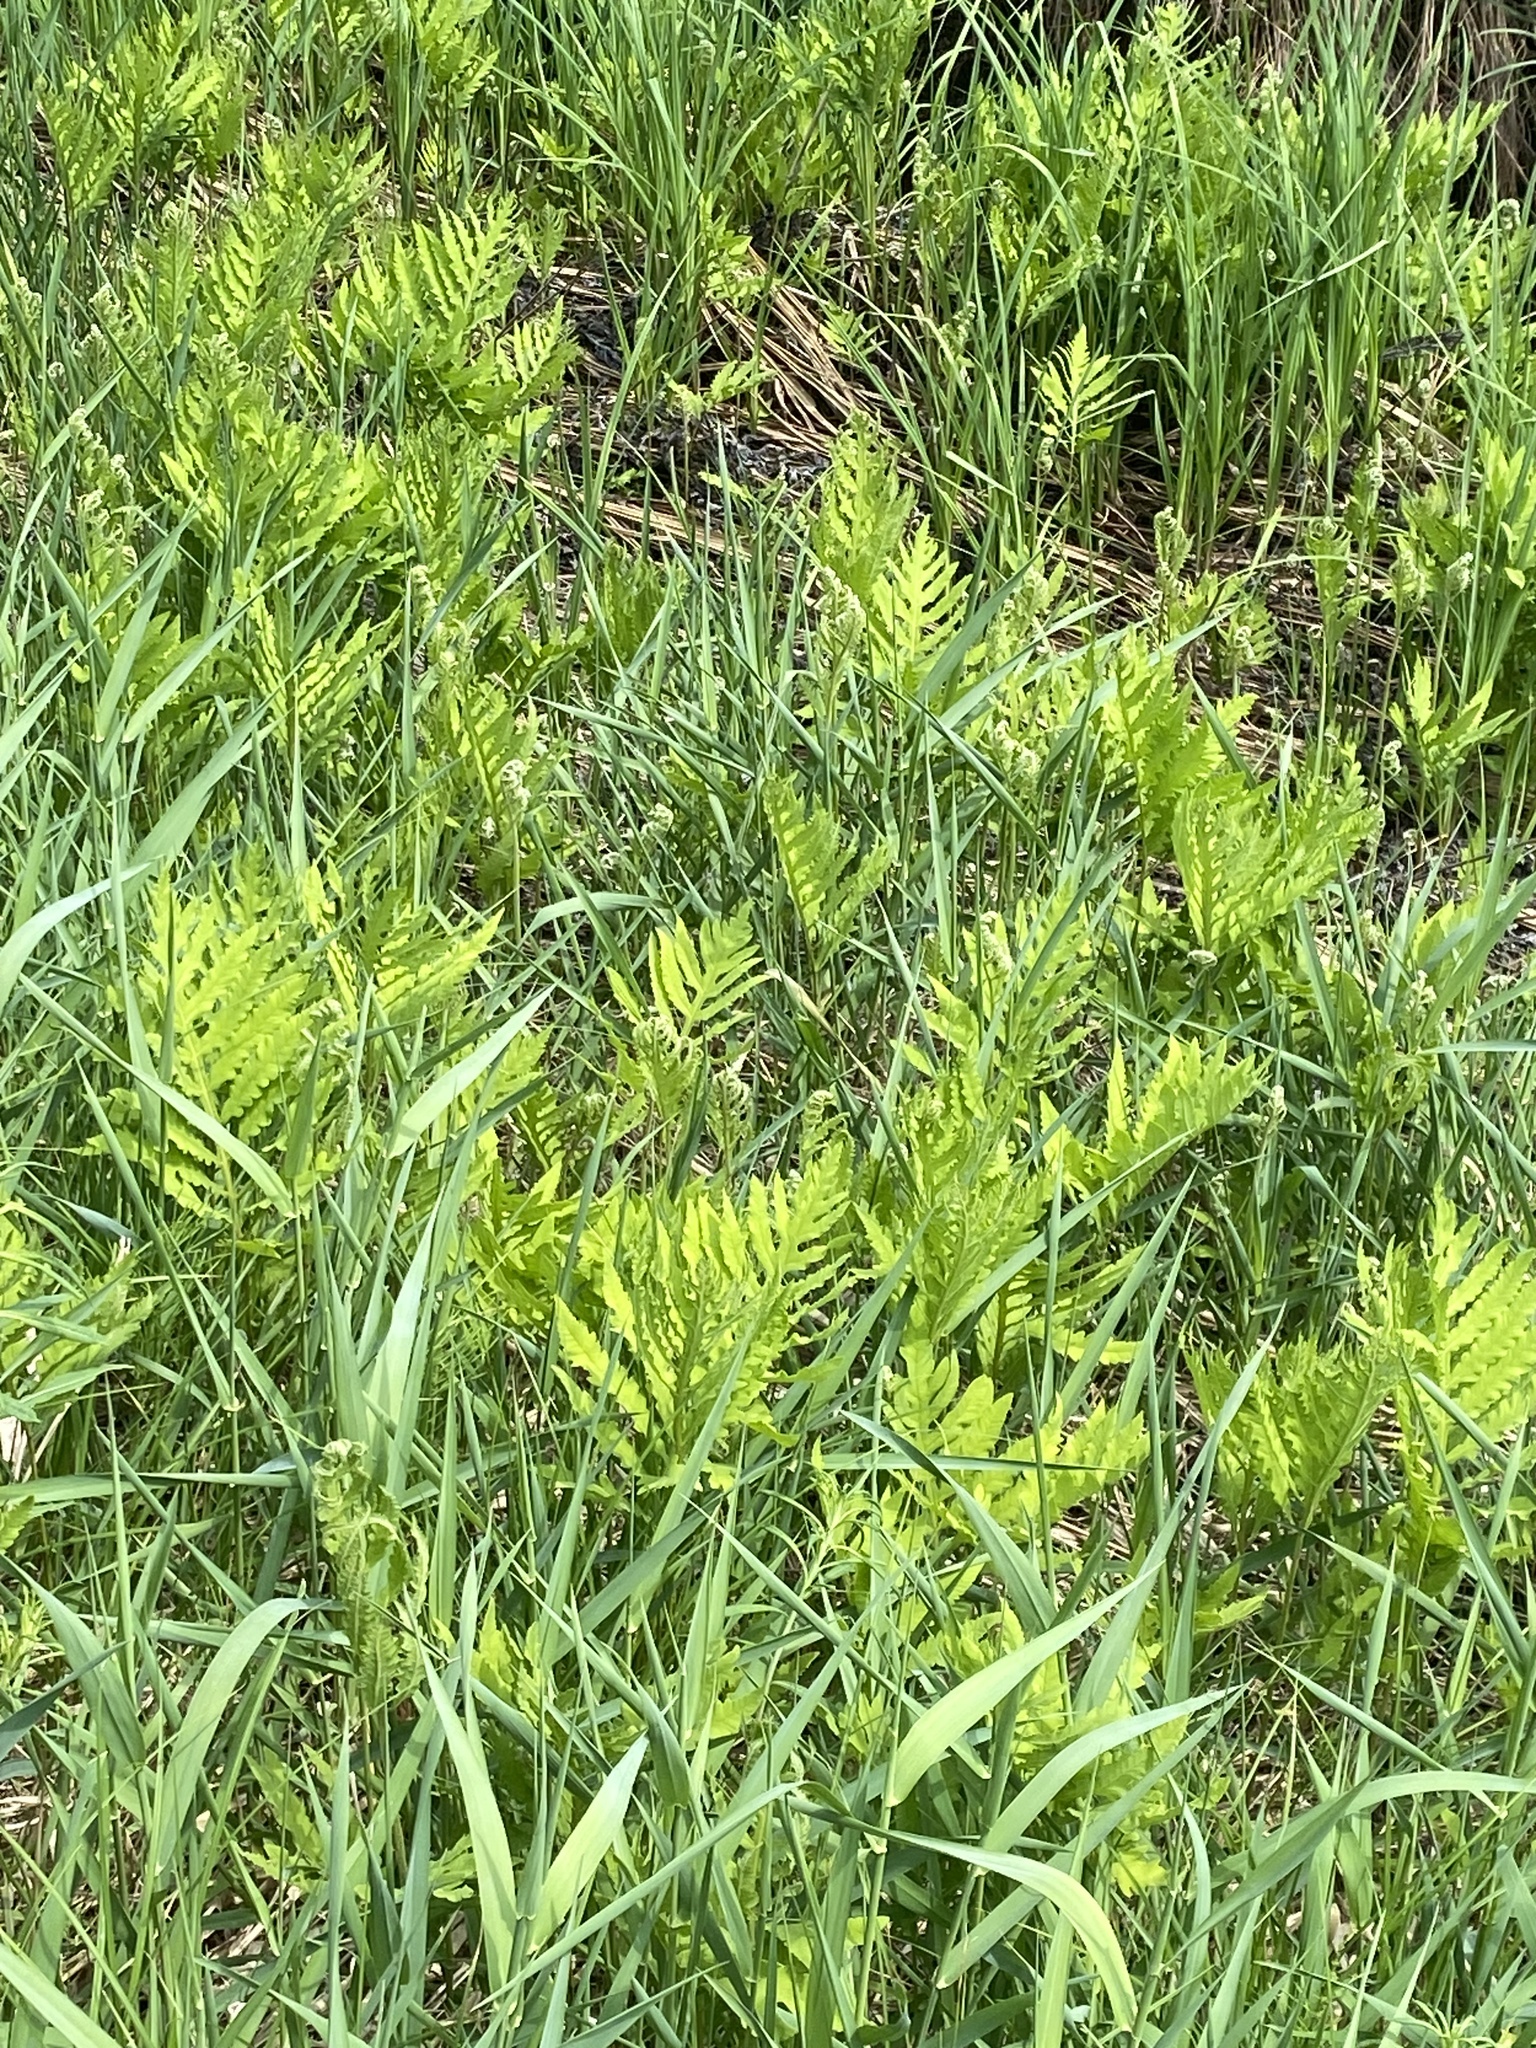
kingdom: Plantae
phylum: Tracheophyta
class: Polypodiopsida
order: Polypodiales
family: Onocleaceae
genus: Onoclea
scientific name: Onoclea sensibilis
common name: Sensitive fern
